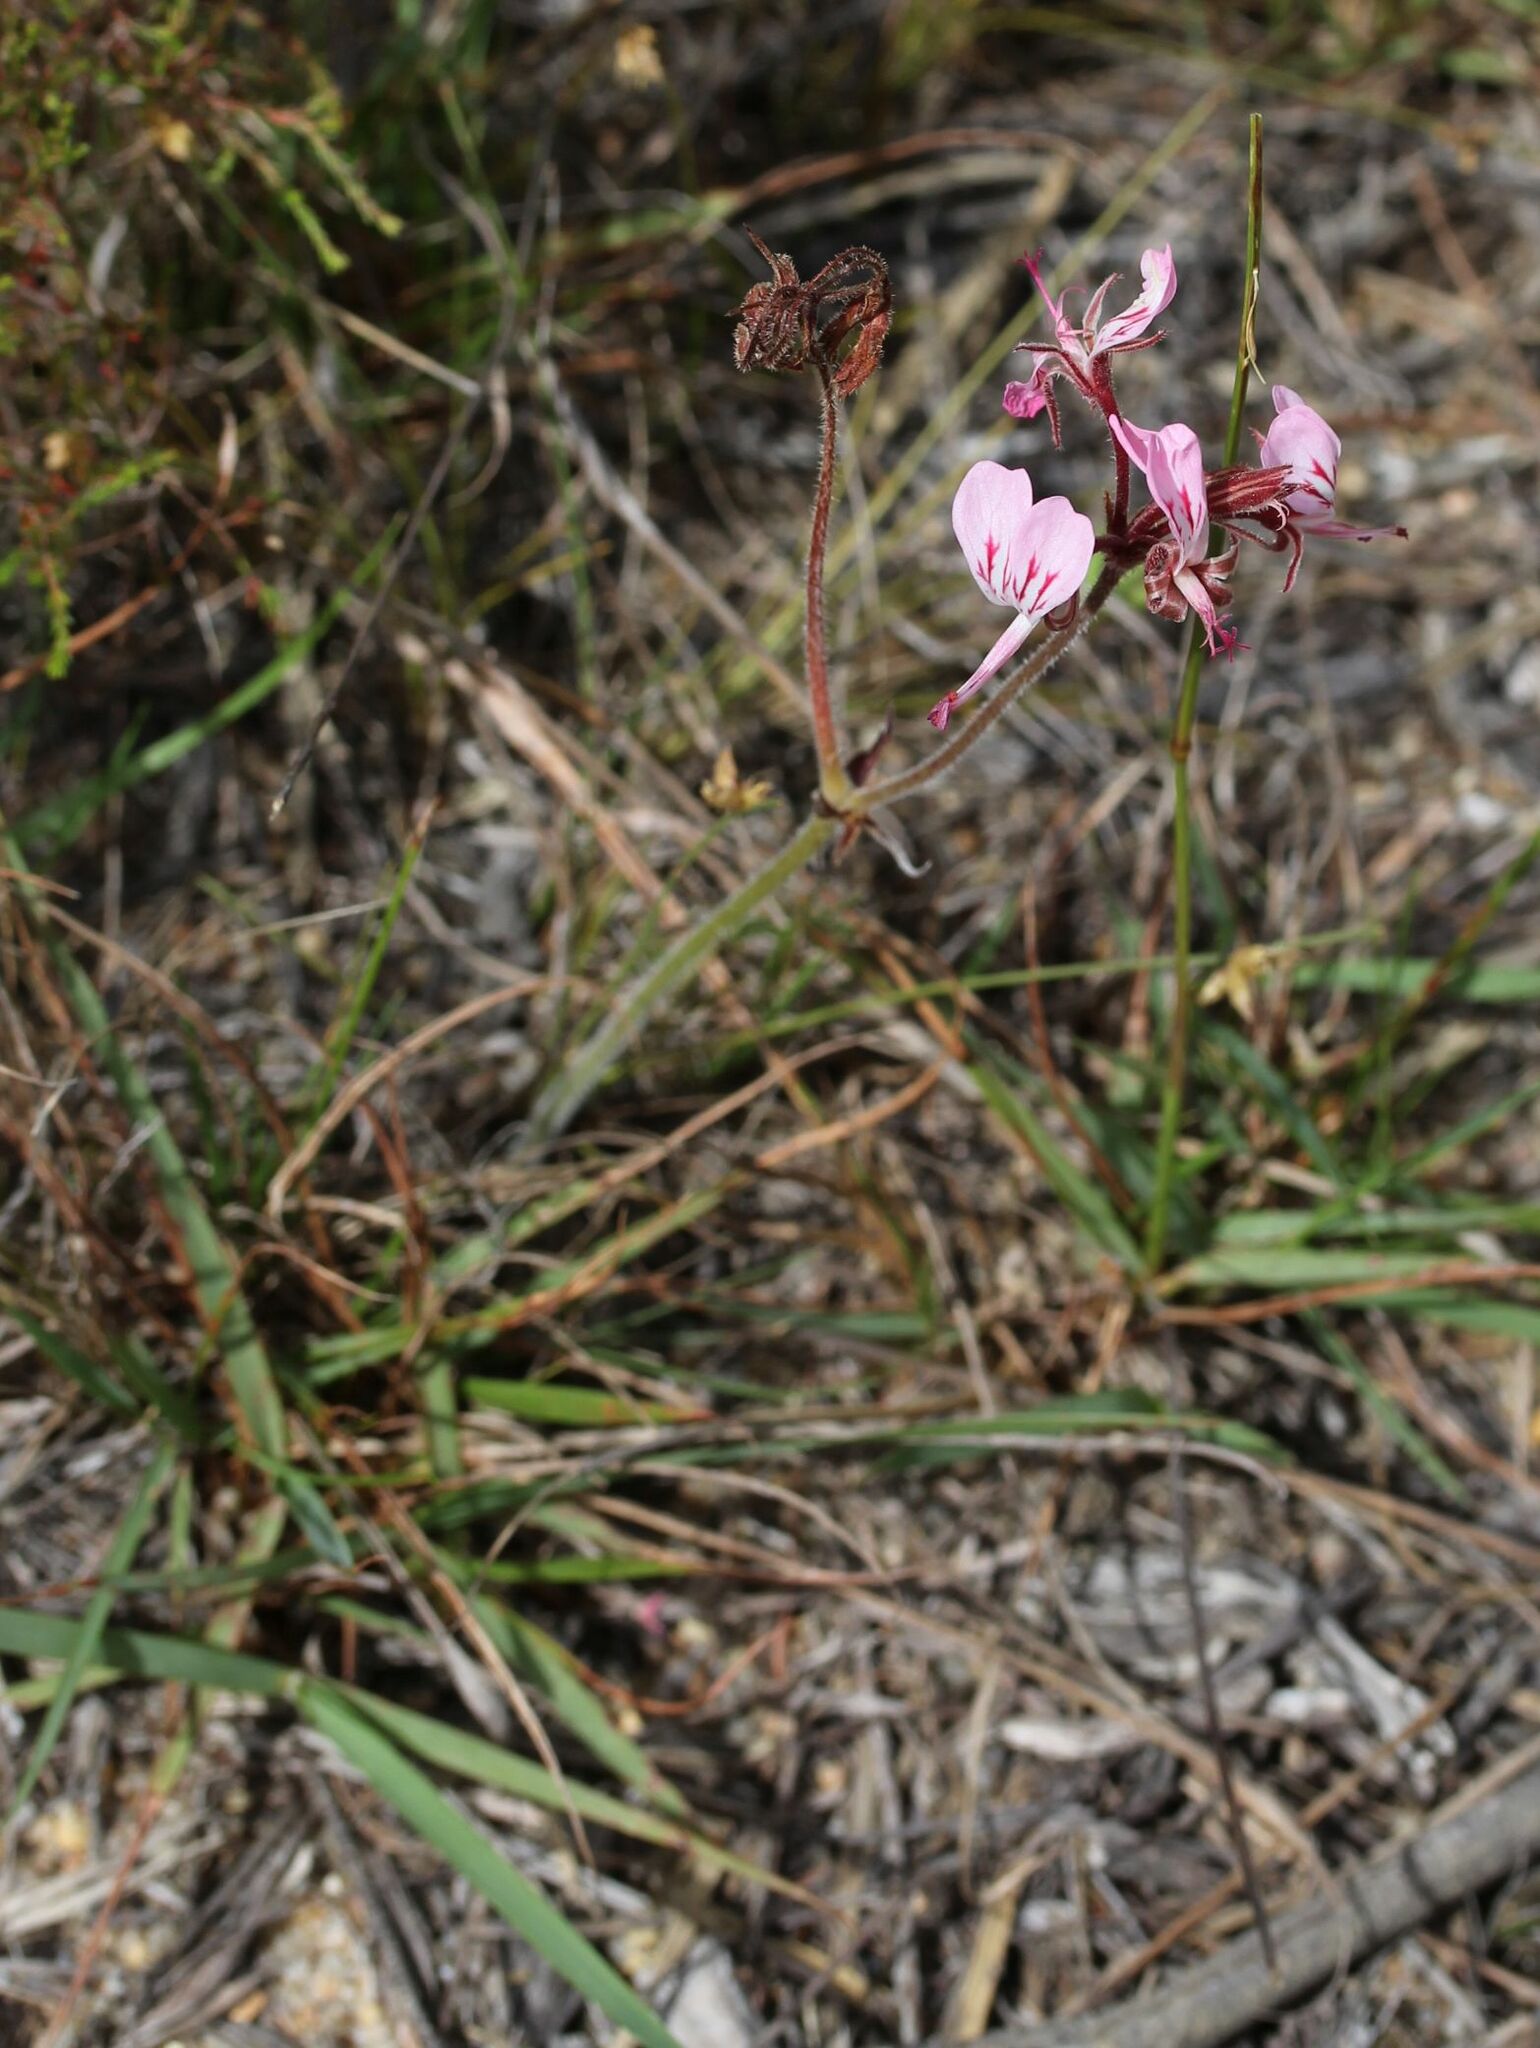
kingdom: Plantae
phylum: Tracheophyta
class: Magnoliopsida
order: Geraniales
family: Geraniaceae
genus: Pelargonium
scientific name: Pelargonium dipetalum
